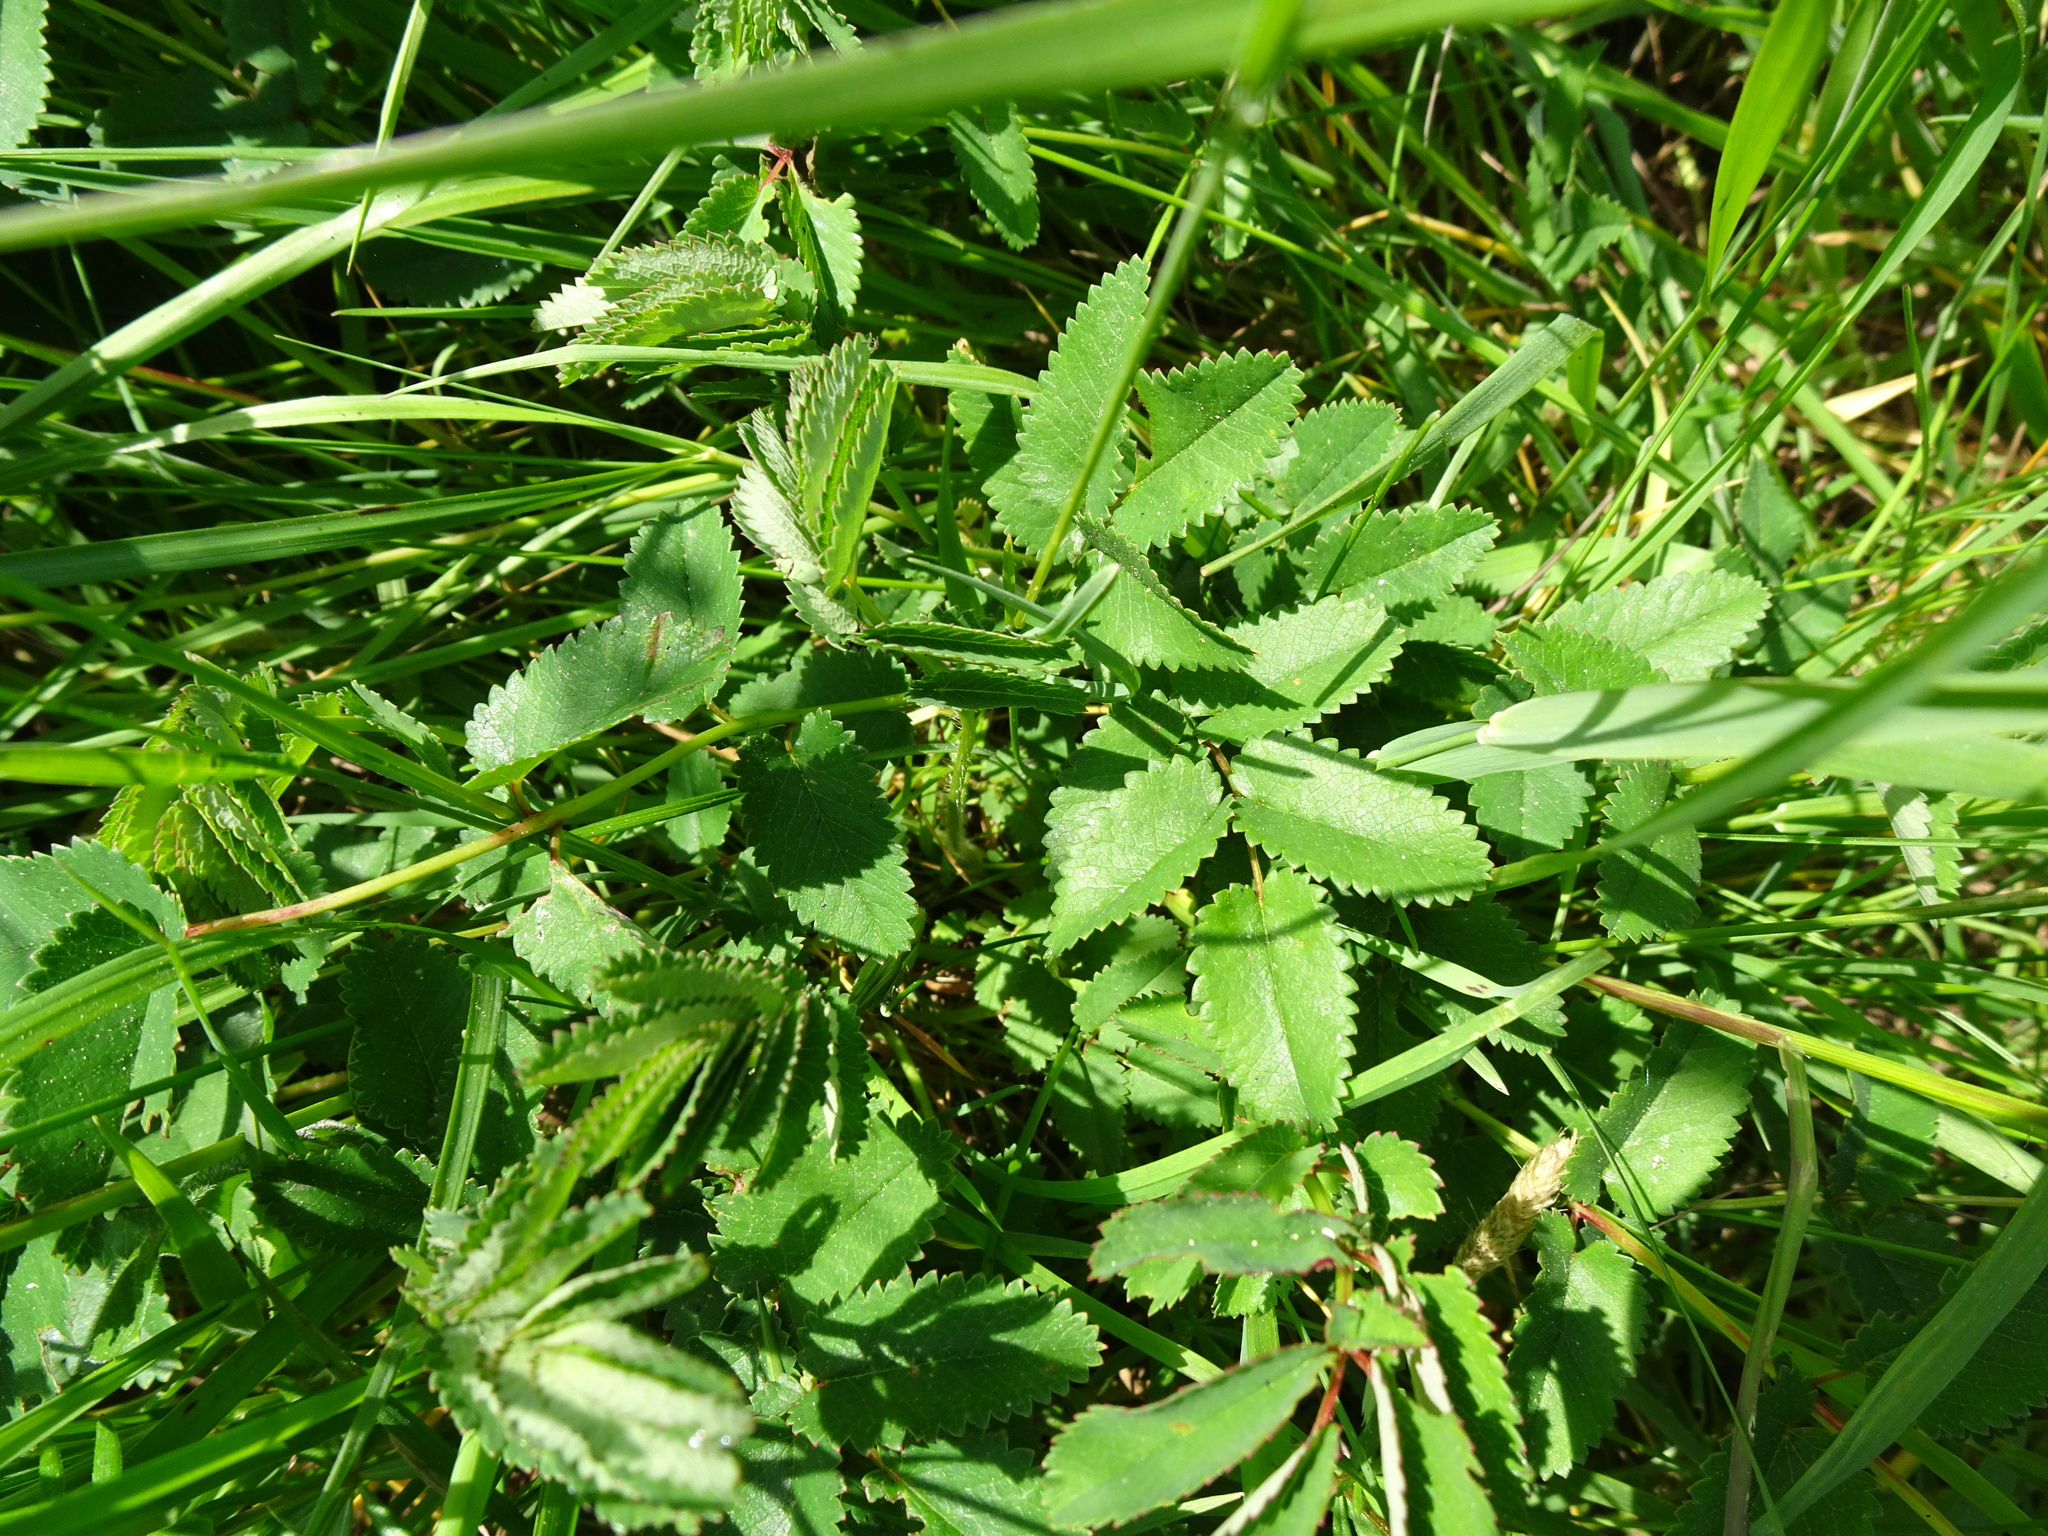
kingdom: Plantae
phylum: Tracheophyta
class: Magnoliopsida
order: Rosales
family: Rosaceae
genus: Sanguisorba
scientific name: Sanguisorba officinalis
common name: Great burnet
